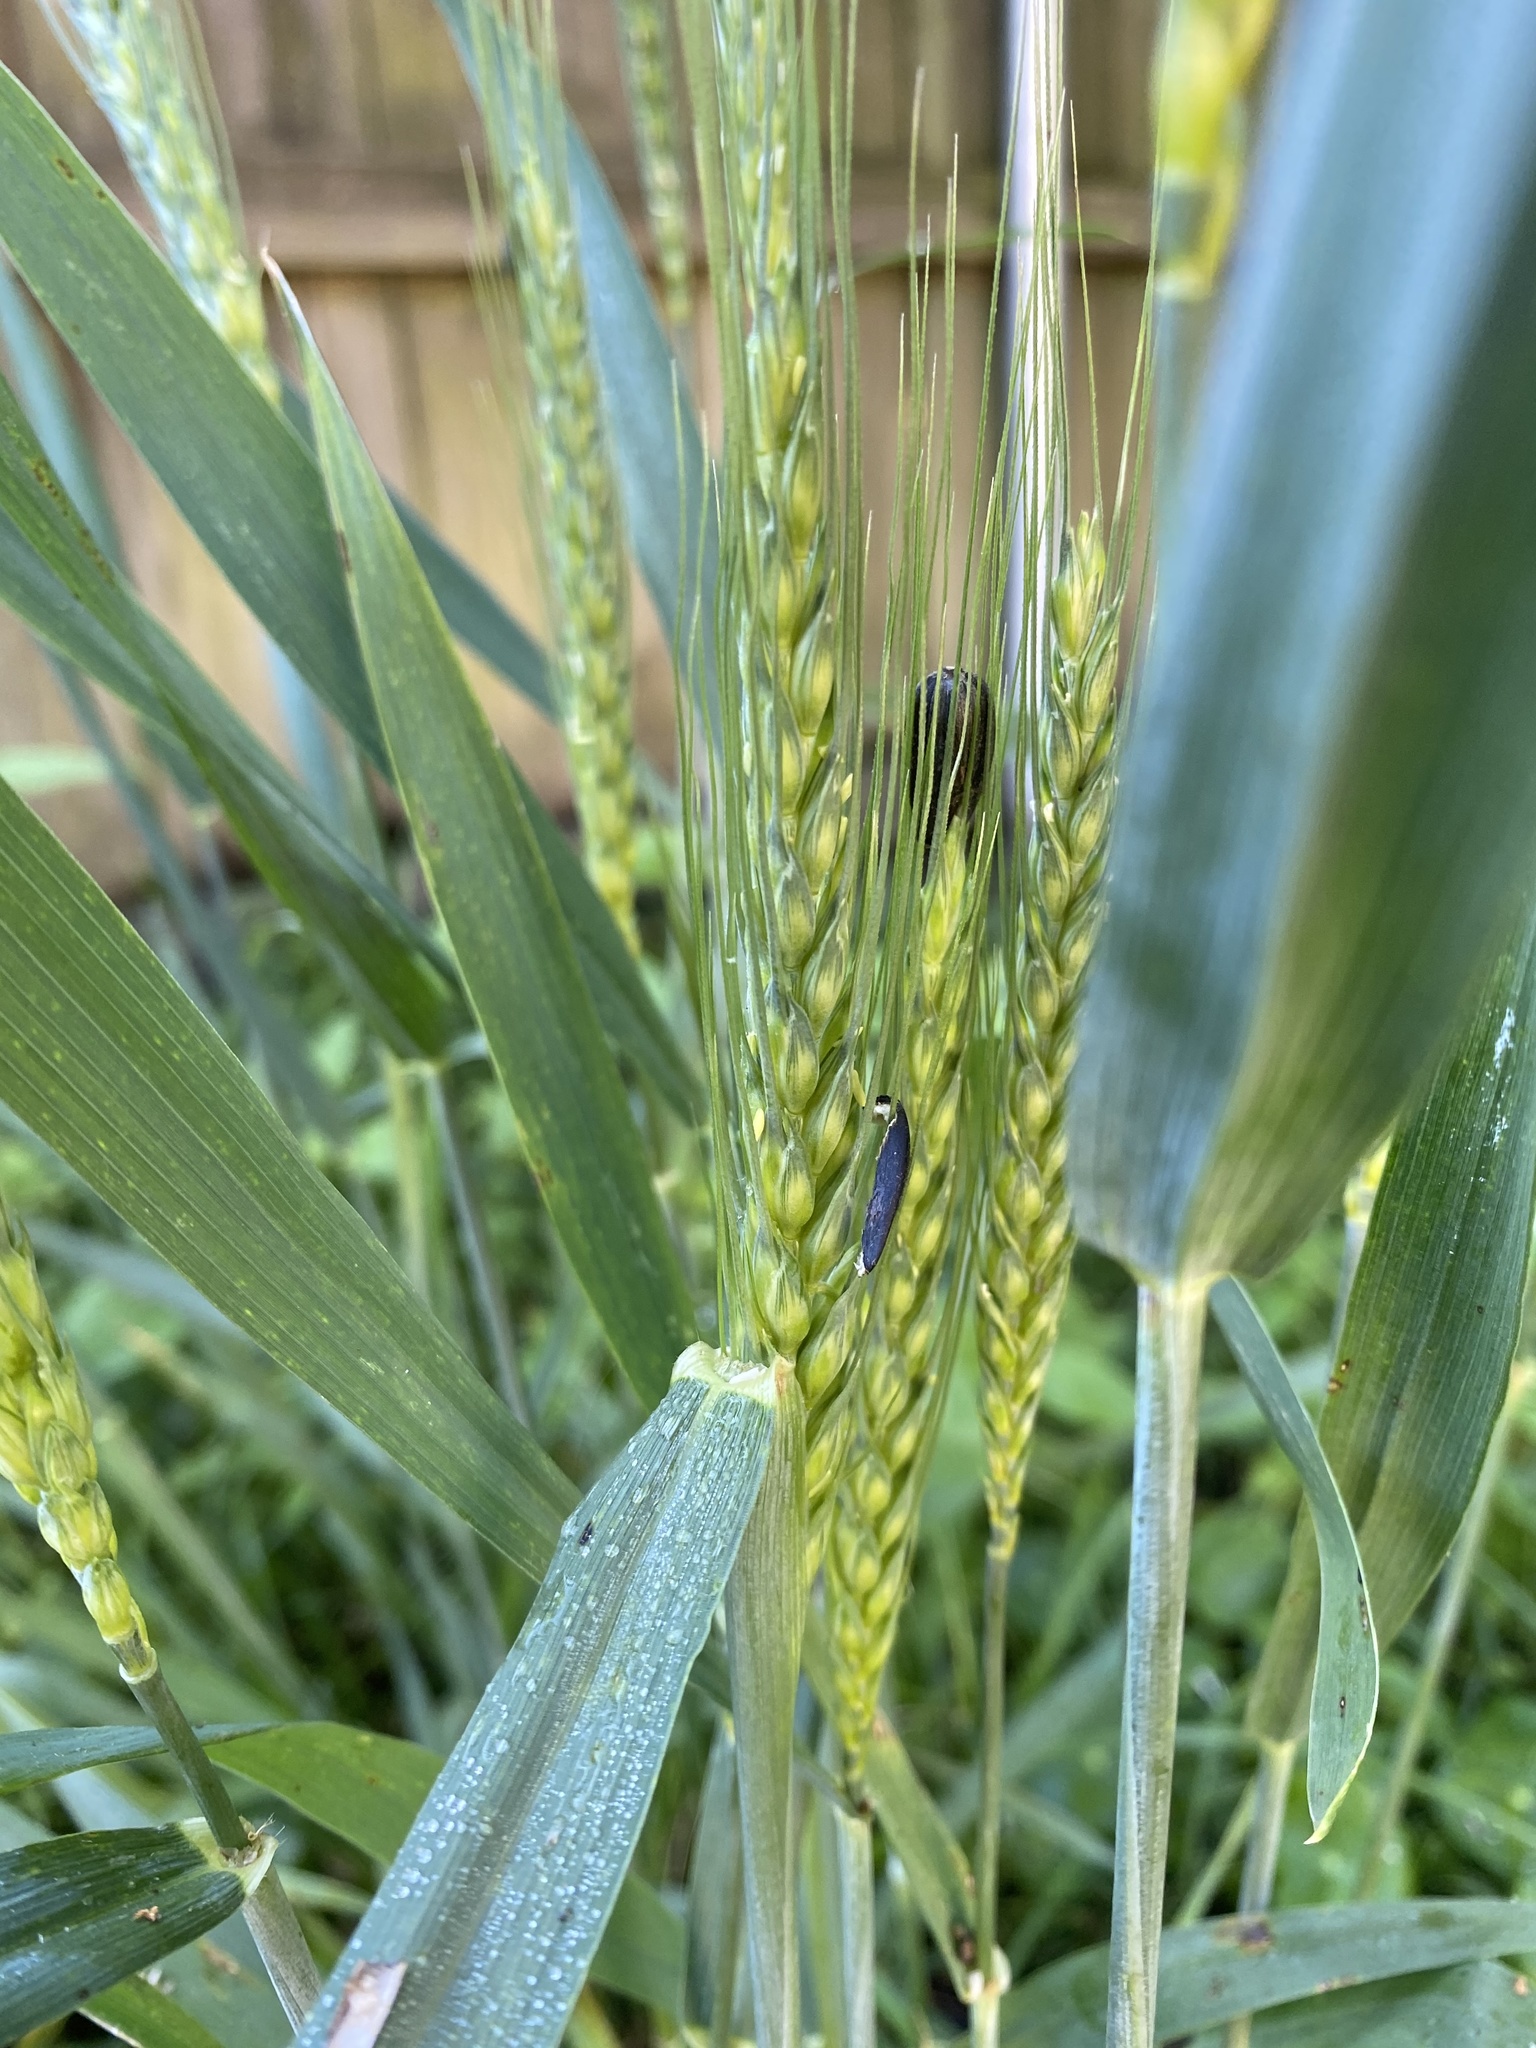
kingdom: Plantae
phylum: Tracheophyta
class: Liliopsida
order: Poales
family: Poaceae
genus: Triticum
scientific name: Triticum aestivum
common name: Common wheat
